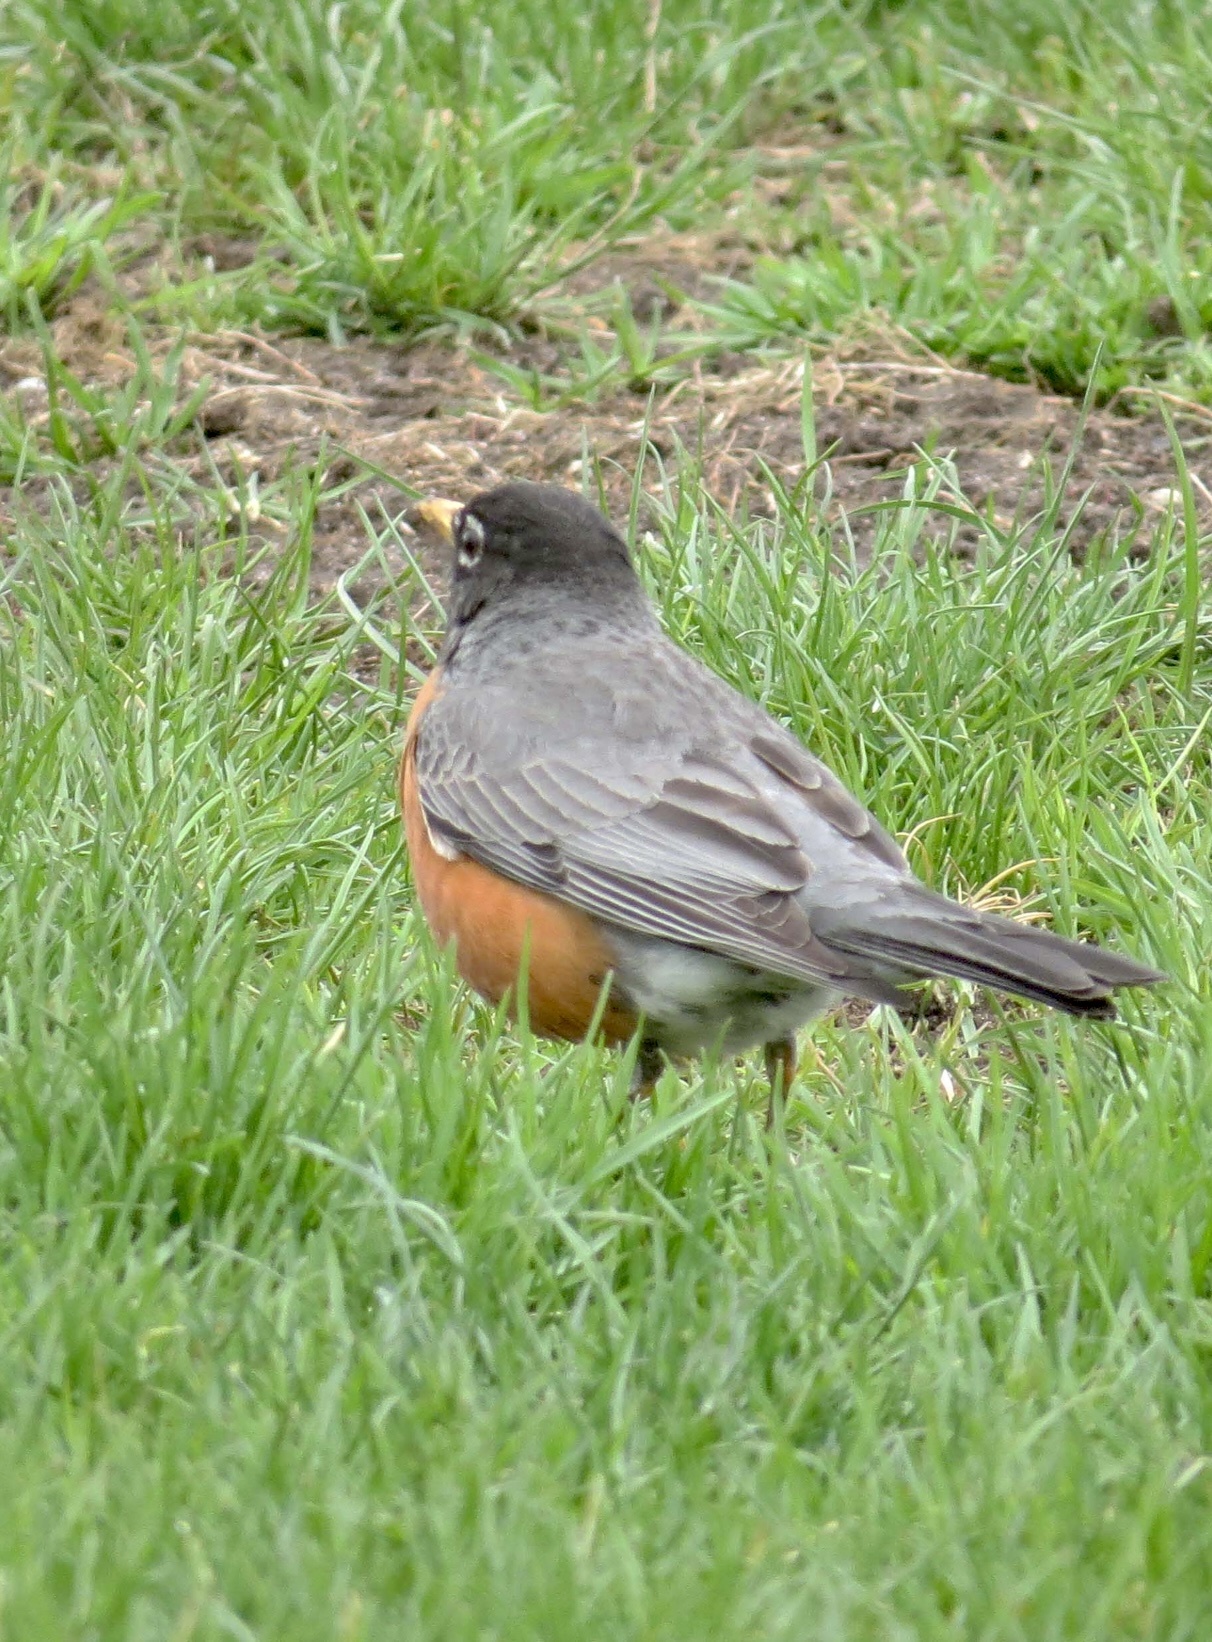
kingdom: Animalia
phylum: Chordata
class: Aves
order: Passeriformes
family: Turdidae
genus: Turdus
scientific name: Turdus migratorius
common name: American robin
